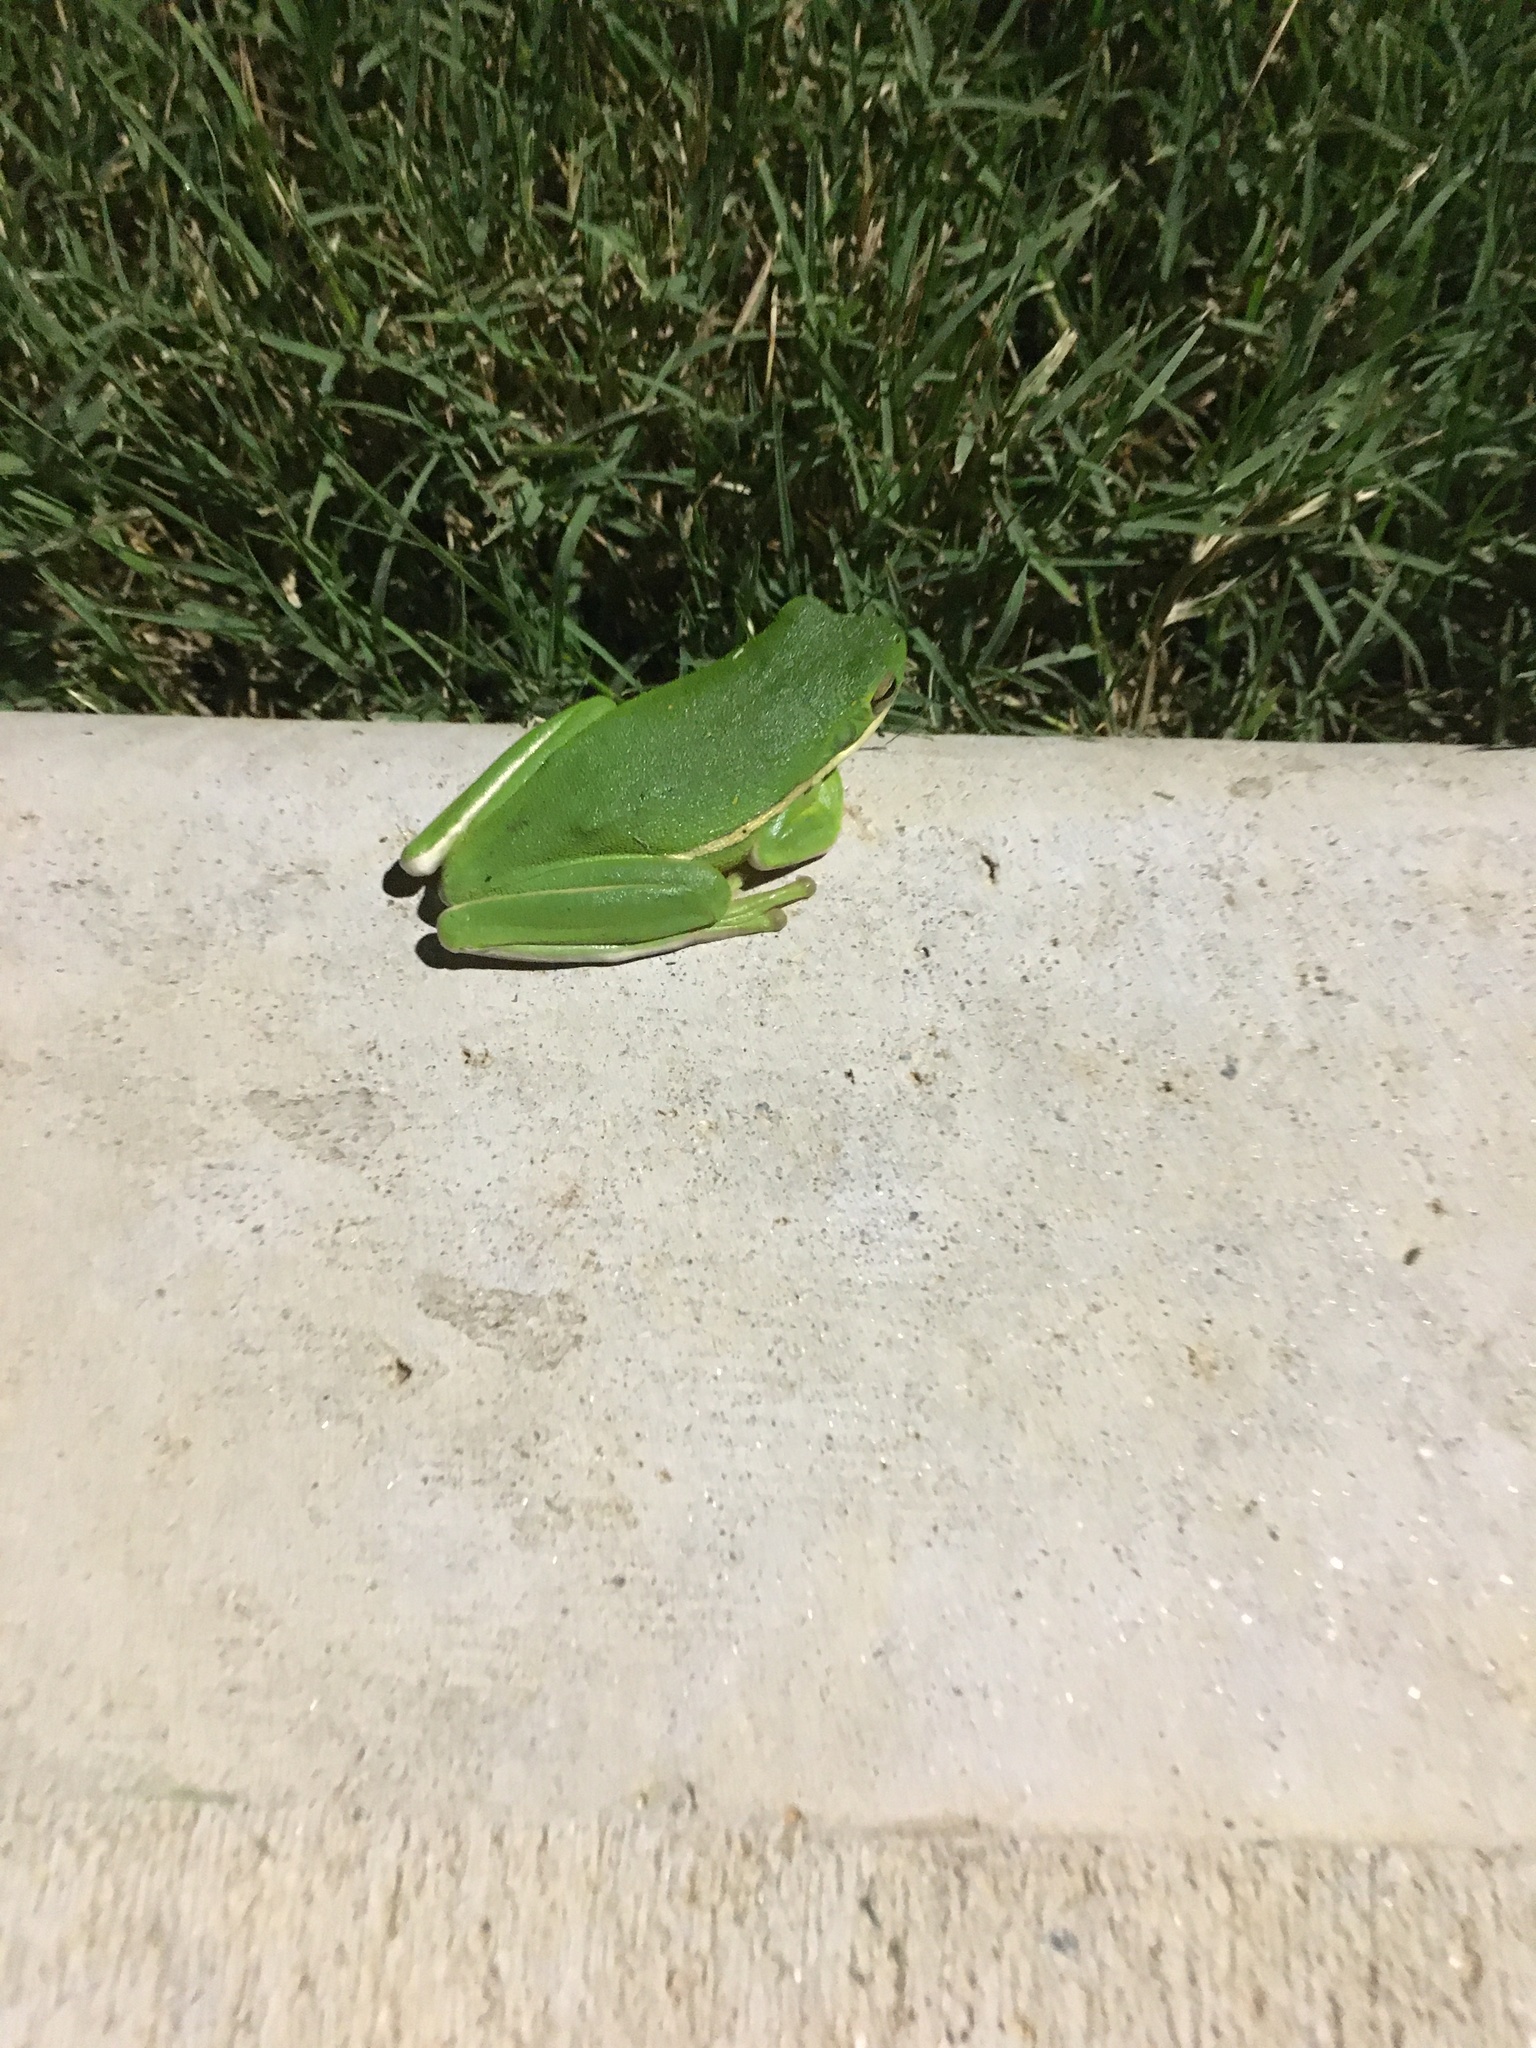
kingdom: Animalia
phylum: Chordata
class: Amphibia
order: Anura
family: Hylidae
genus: Dryophytes
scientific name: Dryophytes cinereus
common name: Green treefrog
